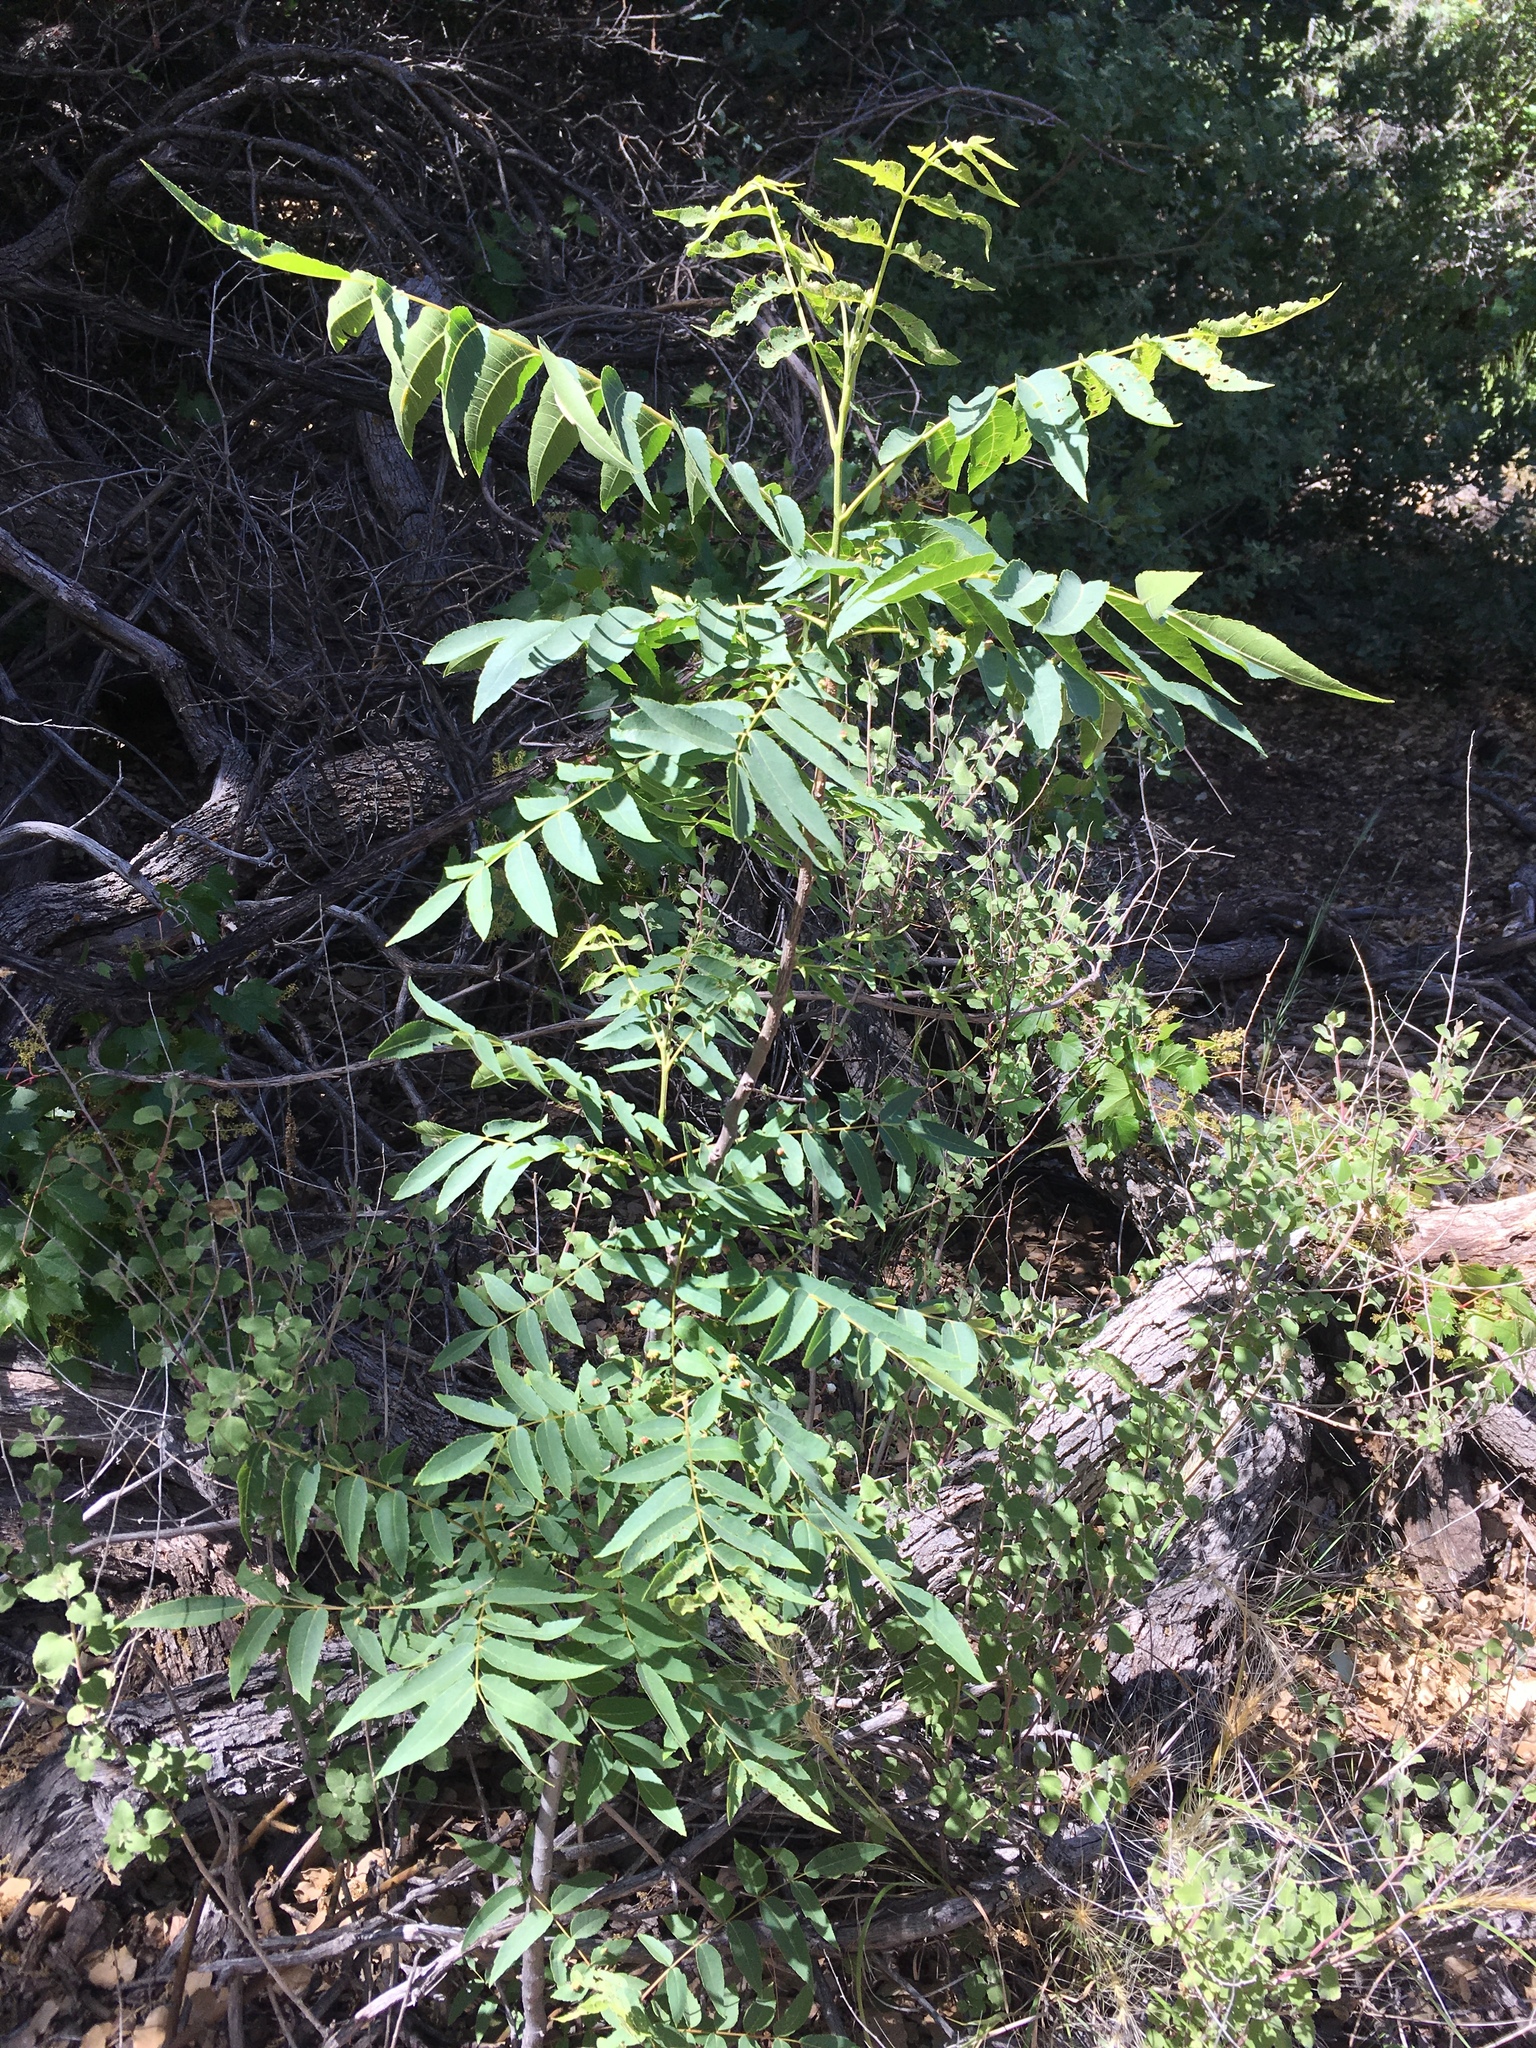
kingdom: Plantae
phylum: Tracheophyta
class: Magnoliopsida
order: Fagales
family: Juglandaceae
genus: Juglans
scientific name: Juglans major
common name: Arizona walnut
